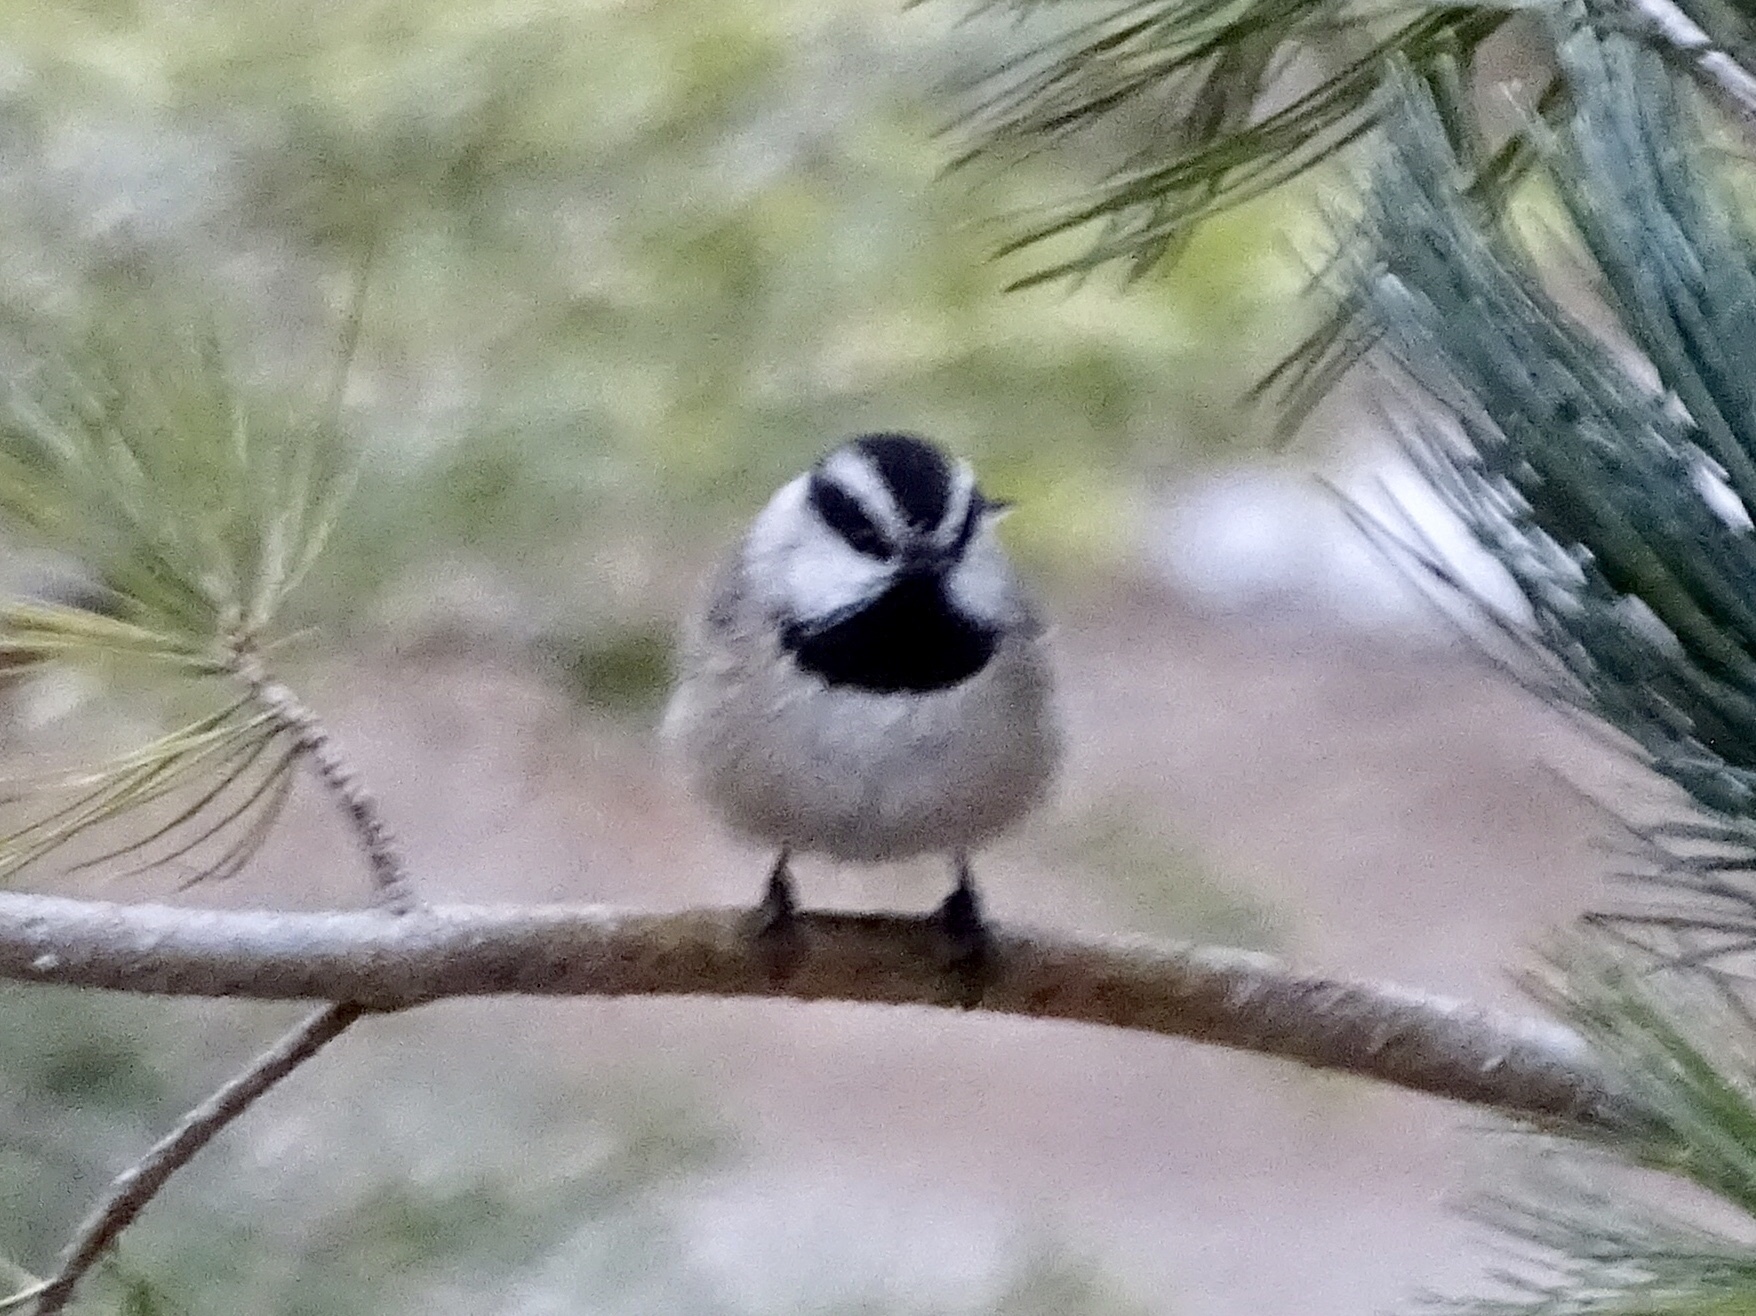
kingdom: Animalia
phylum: Chordata
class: Aves
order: Passeriformes
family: Paridae
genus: Poecile
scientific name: Poecile gambeli
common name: Mountain chickadee
